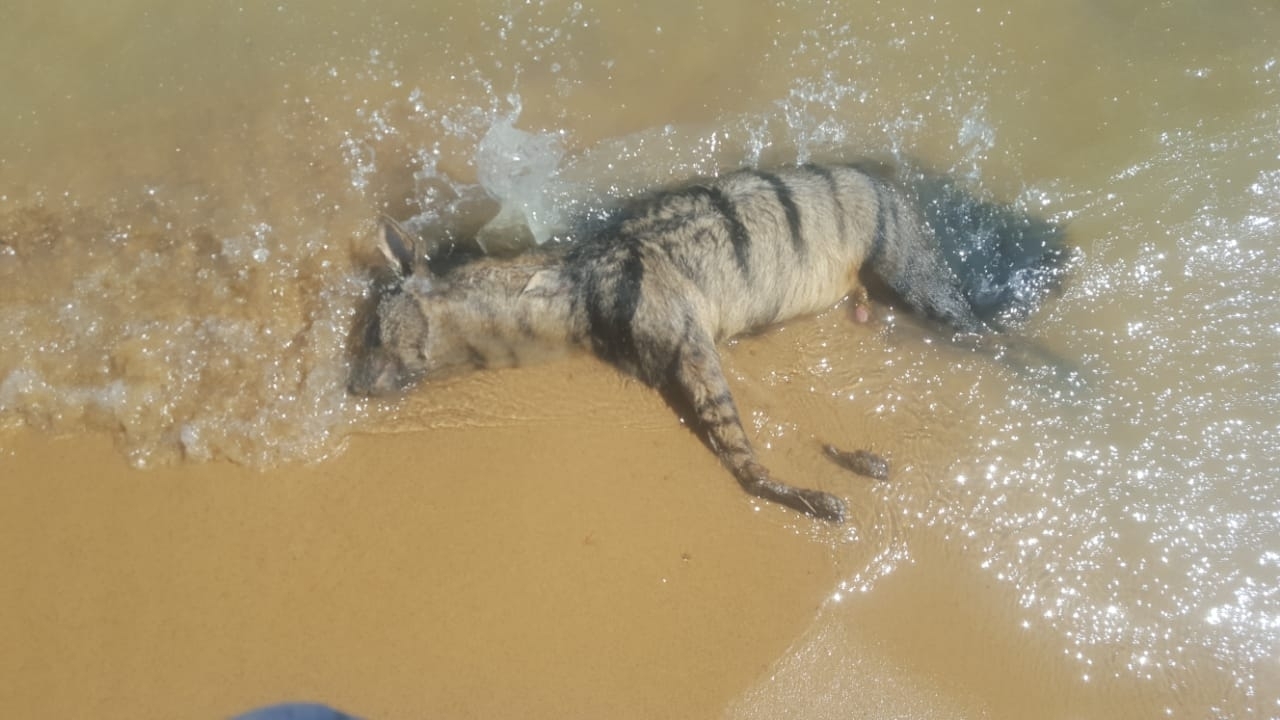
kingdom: Animalia
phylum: Chordata
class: Mammalia
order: Carnivora
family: Hyaenidae
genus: Proteles
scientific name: Proteles cristata
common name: Aardwolf
